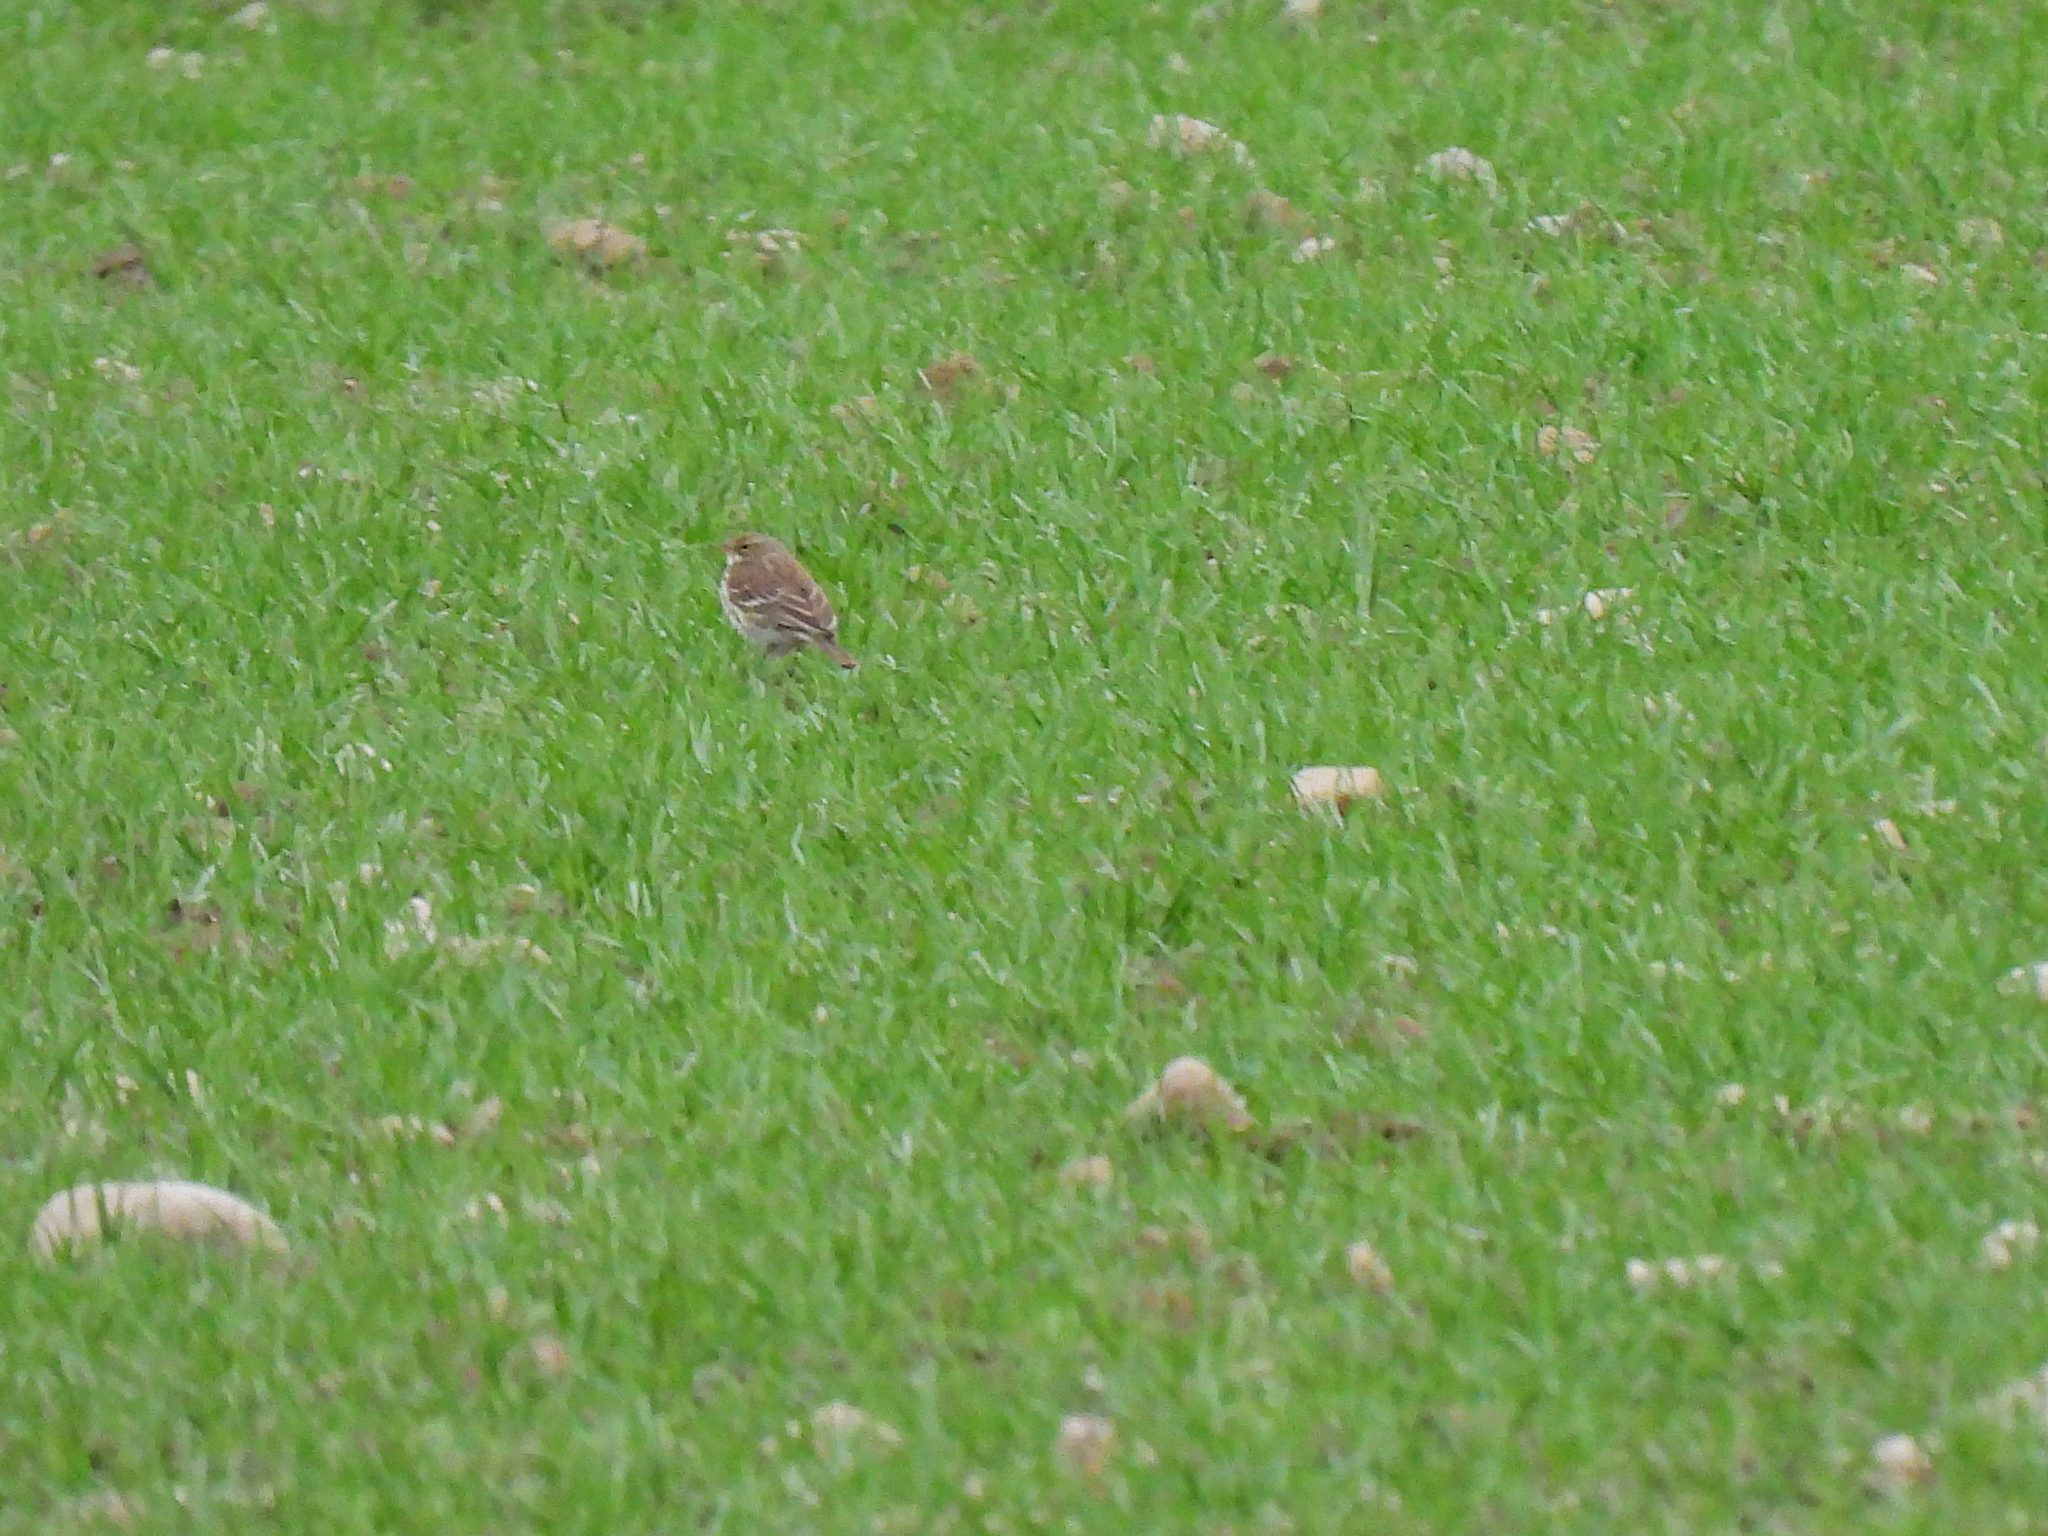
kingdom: Animalia
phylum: Chordata
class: Aves
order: Passeriformes
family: Motacillidae
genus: Anthus
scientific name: Anthus pratensis
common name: Meadow pipit
